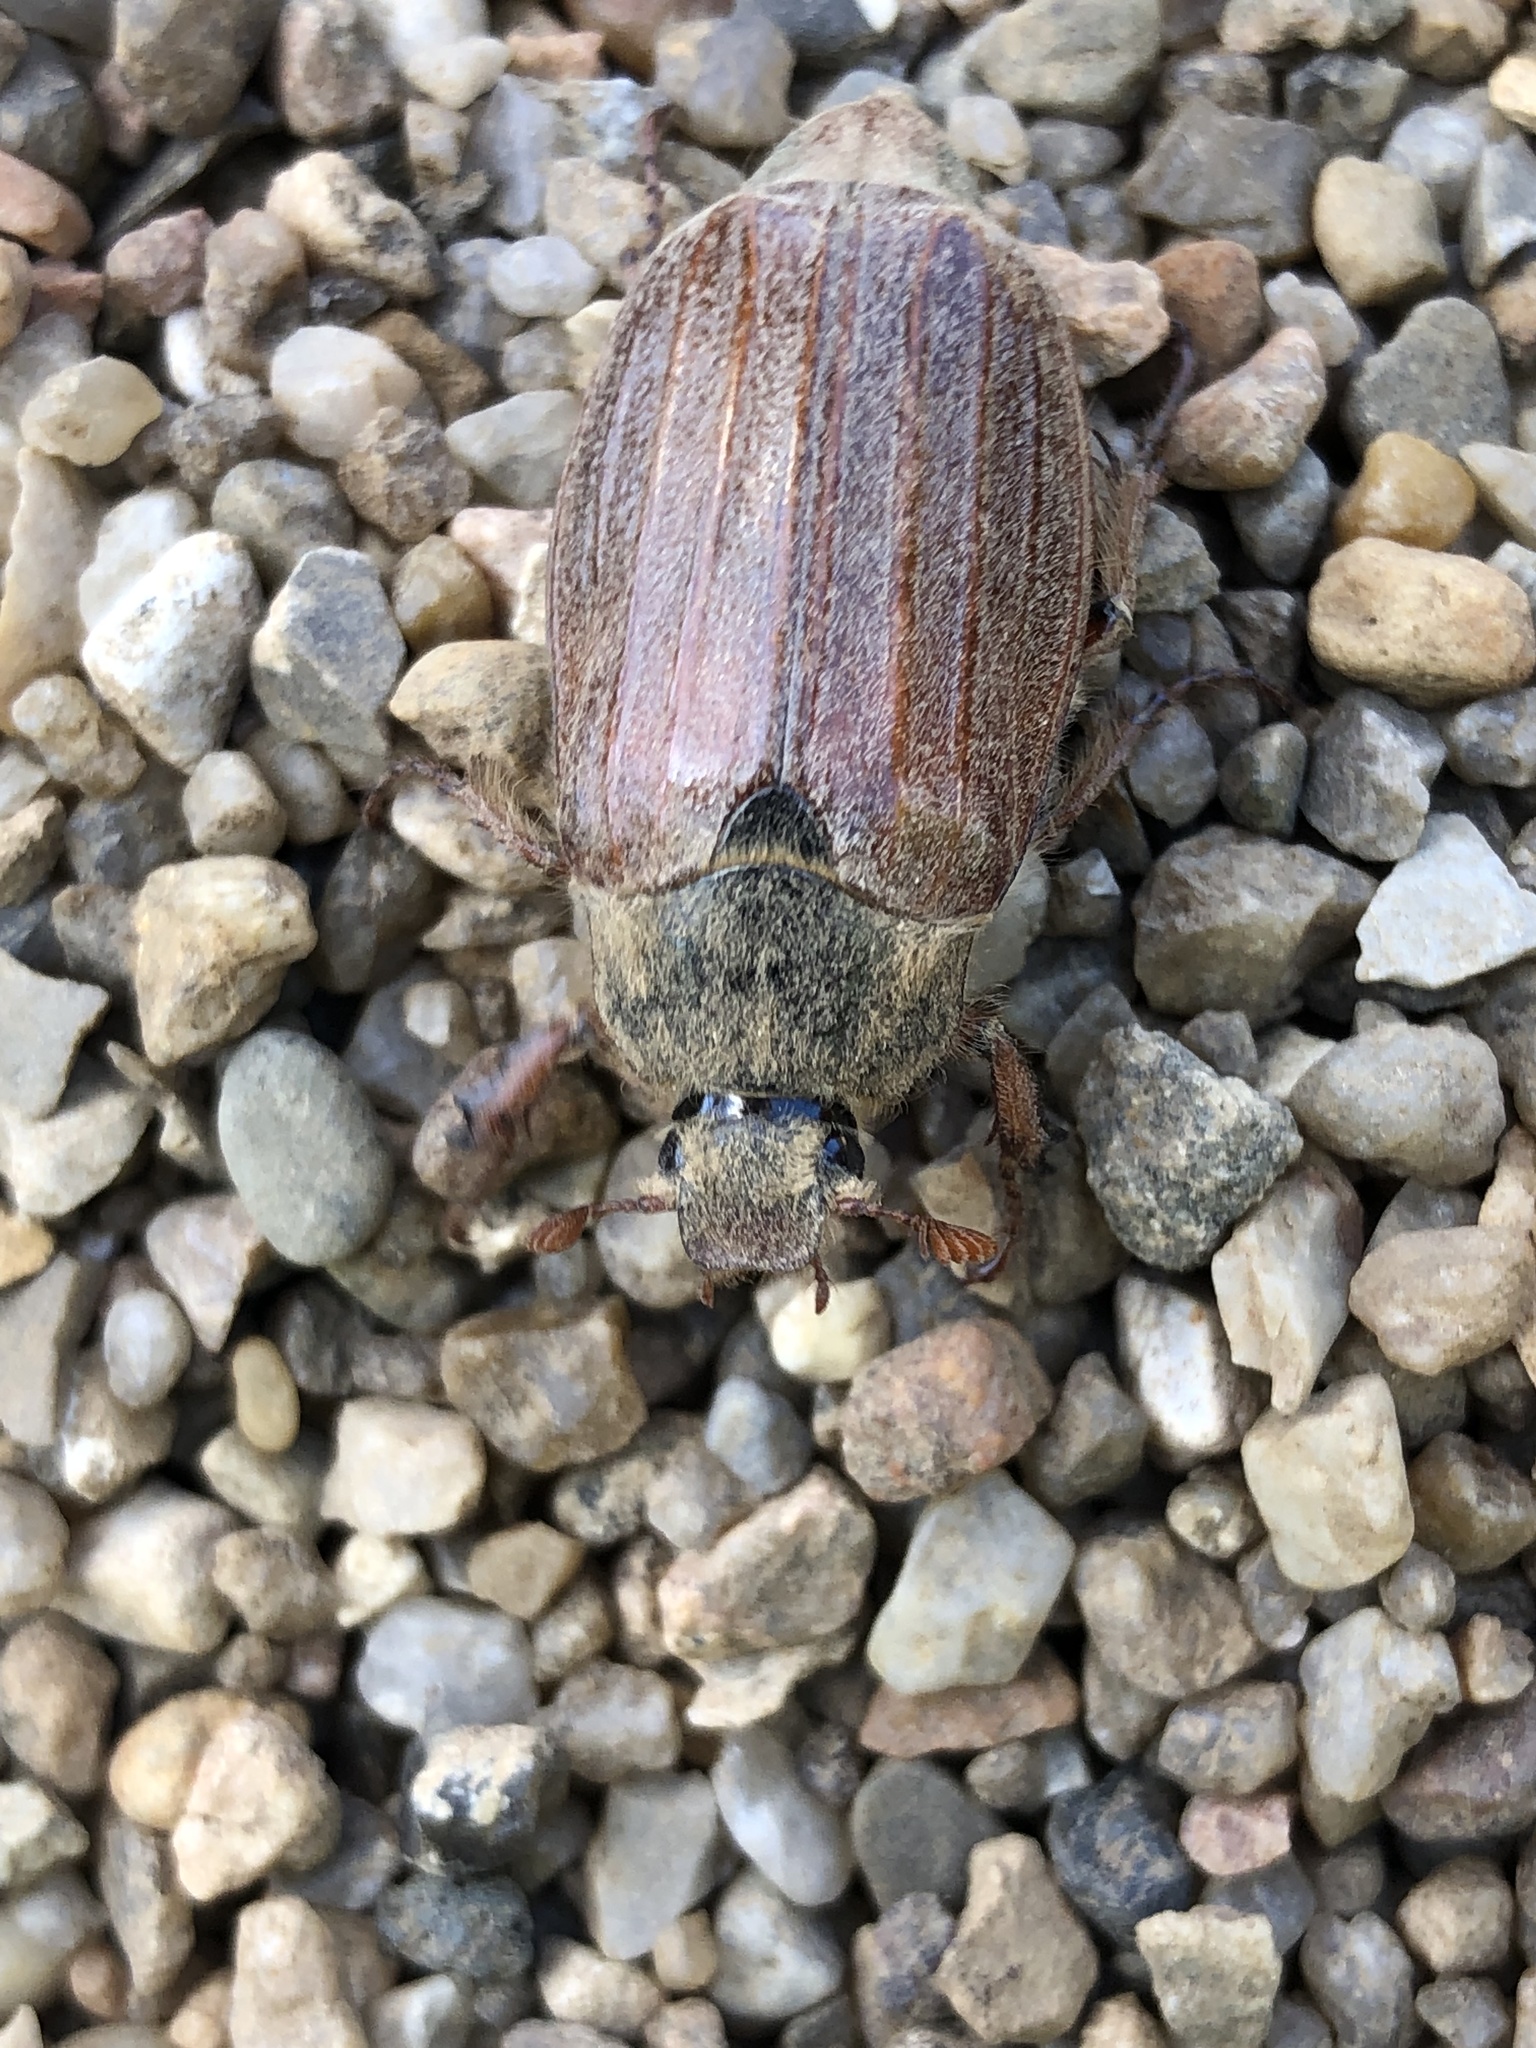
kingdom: Animalia
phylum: Arthropoda
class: Insecta
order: Coleoptera
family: Scarabaeidae
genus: Melolontha
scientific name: Melolontha melolontha
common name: Cockchafer maybeetle
